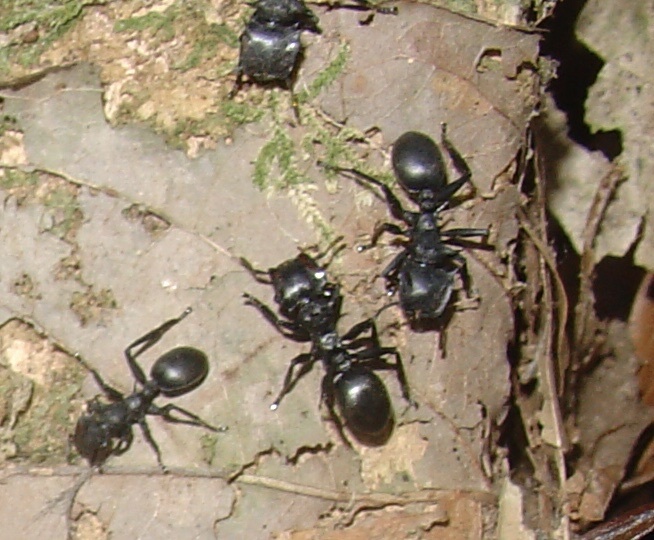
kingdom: Animalia
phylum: Arthropoda
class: Insecta
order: Hymenoptera
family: Formicidae
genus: Cephalotes
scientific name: Cephalotes atratus
